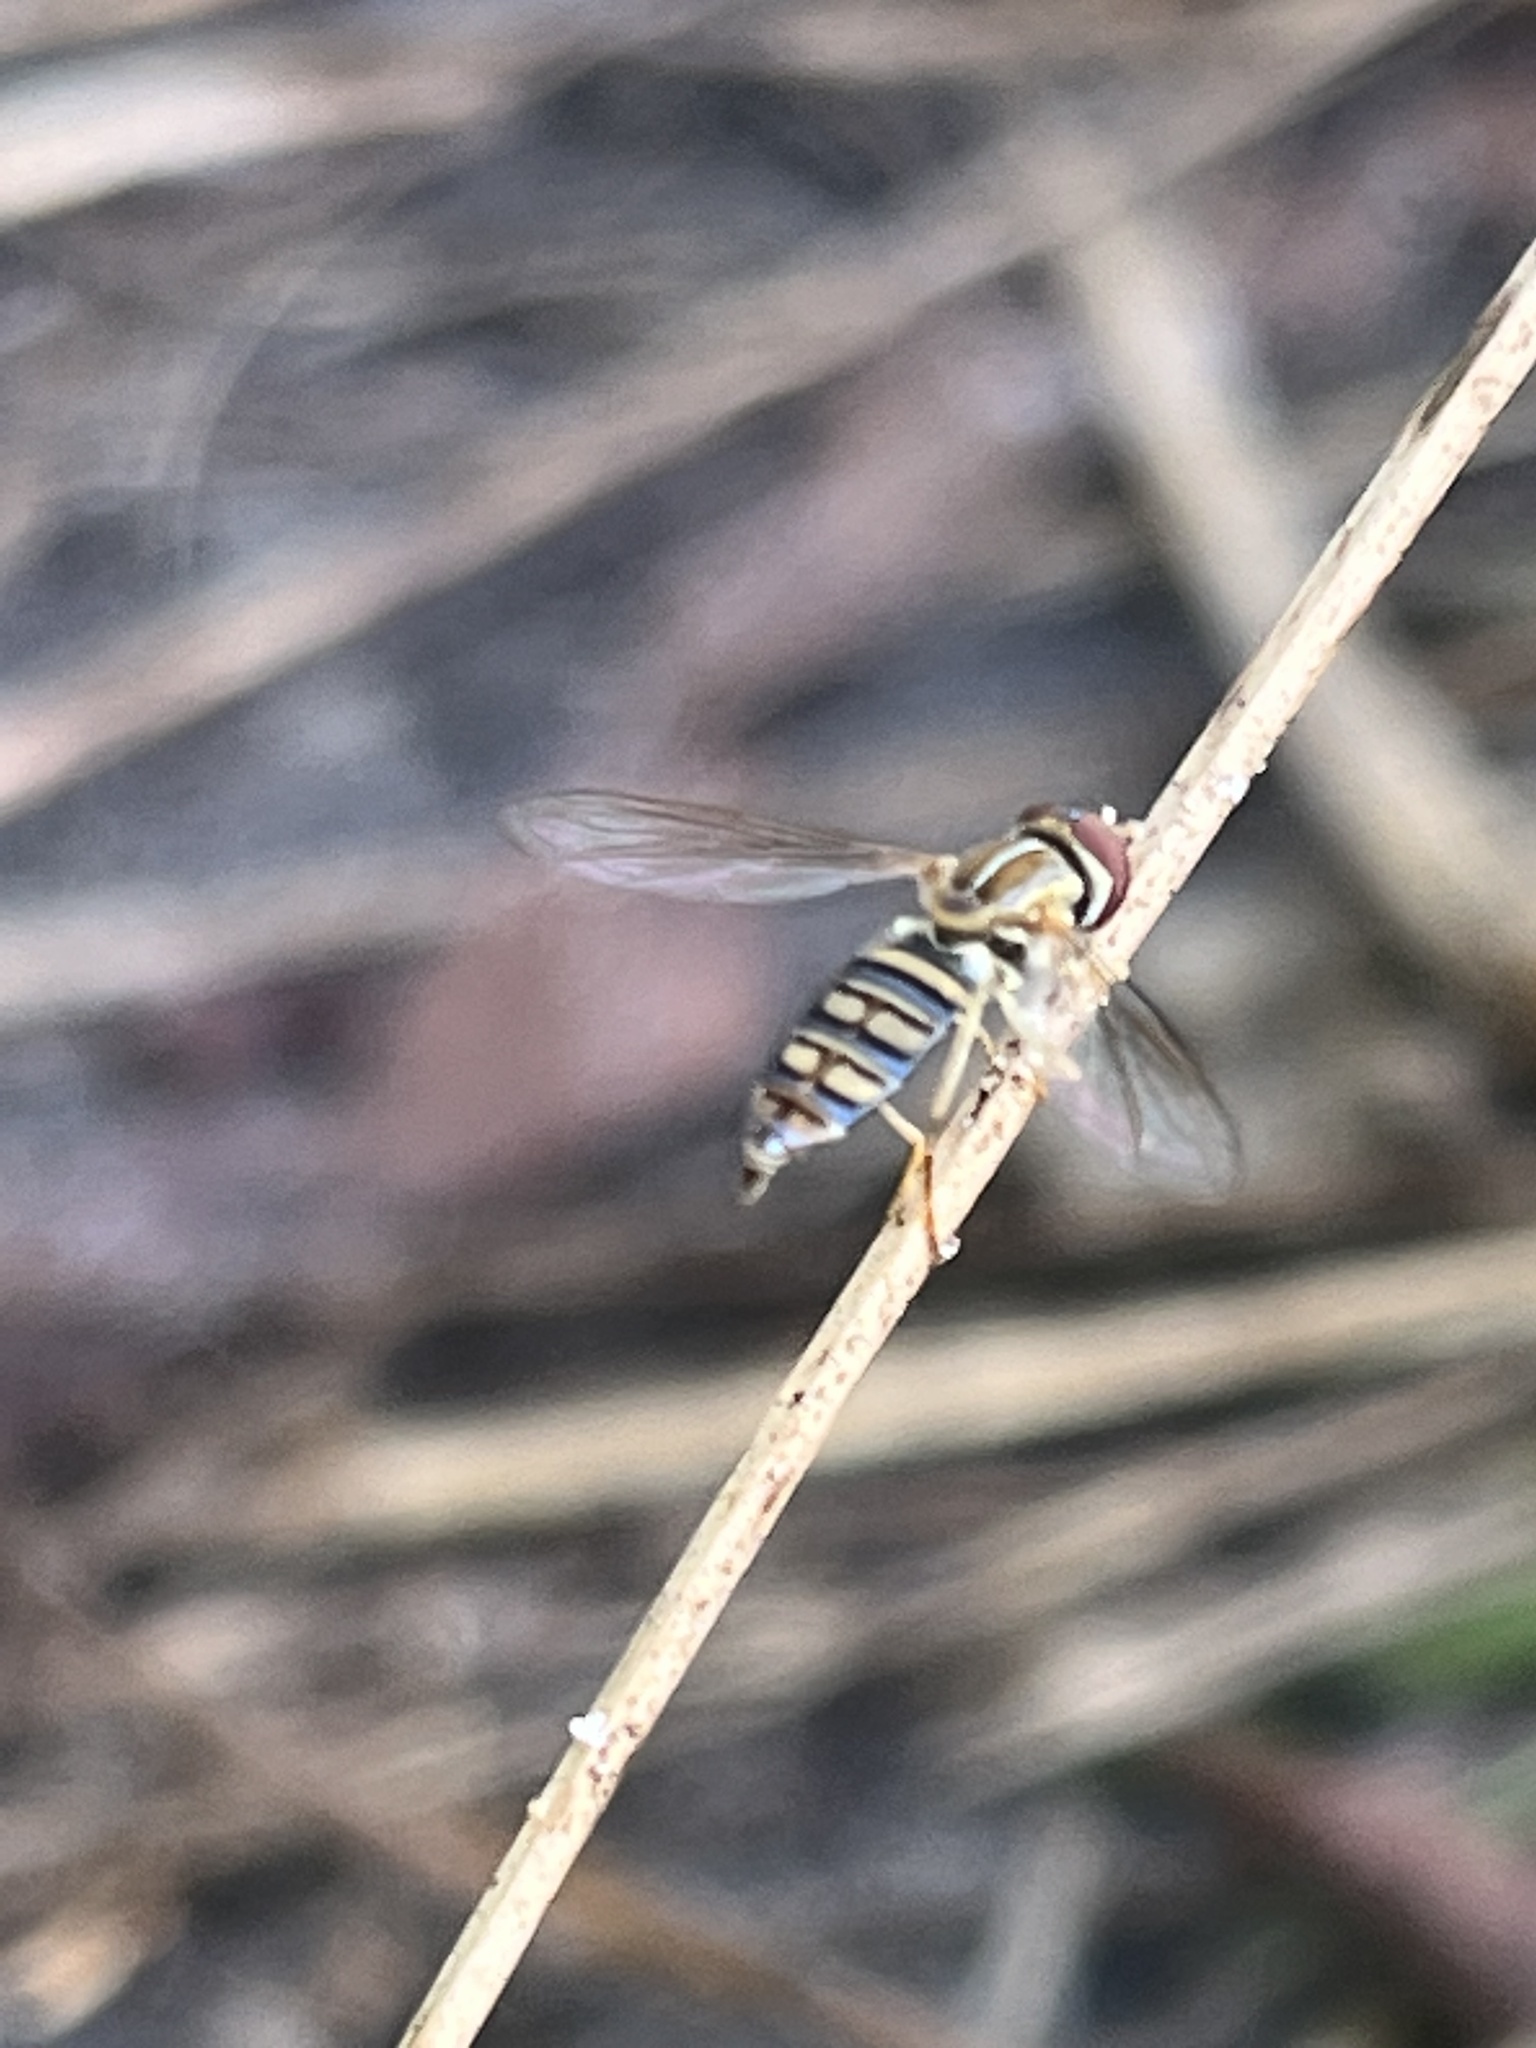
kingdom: Animalia
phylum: Arthropoda
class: Insecta
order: Diptera
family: Syrphidae
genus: Toxomerus
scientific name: Toxomerus politus
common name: Maize calligrapher
